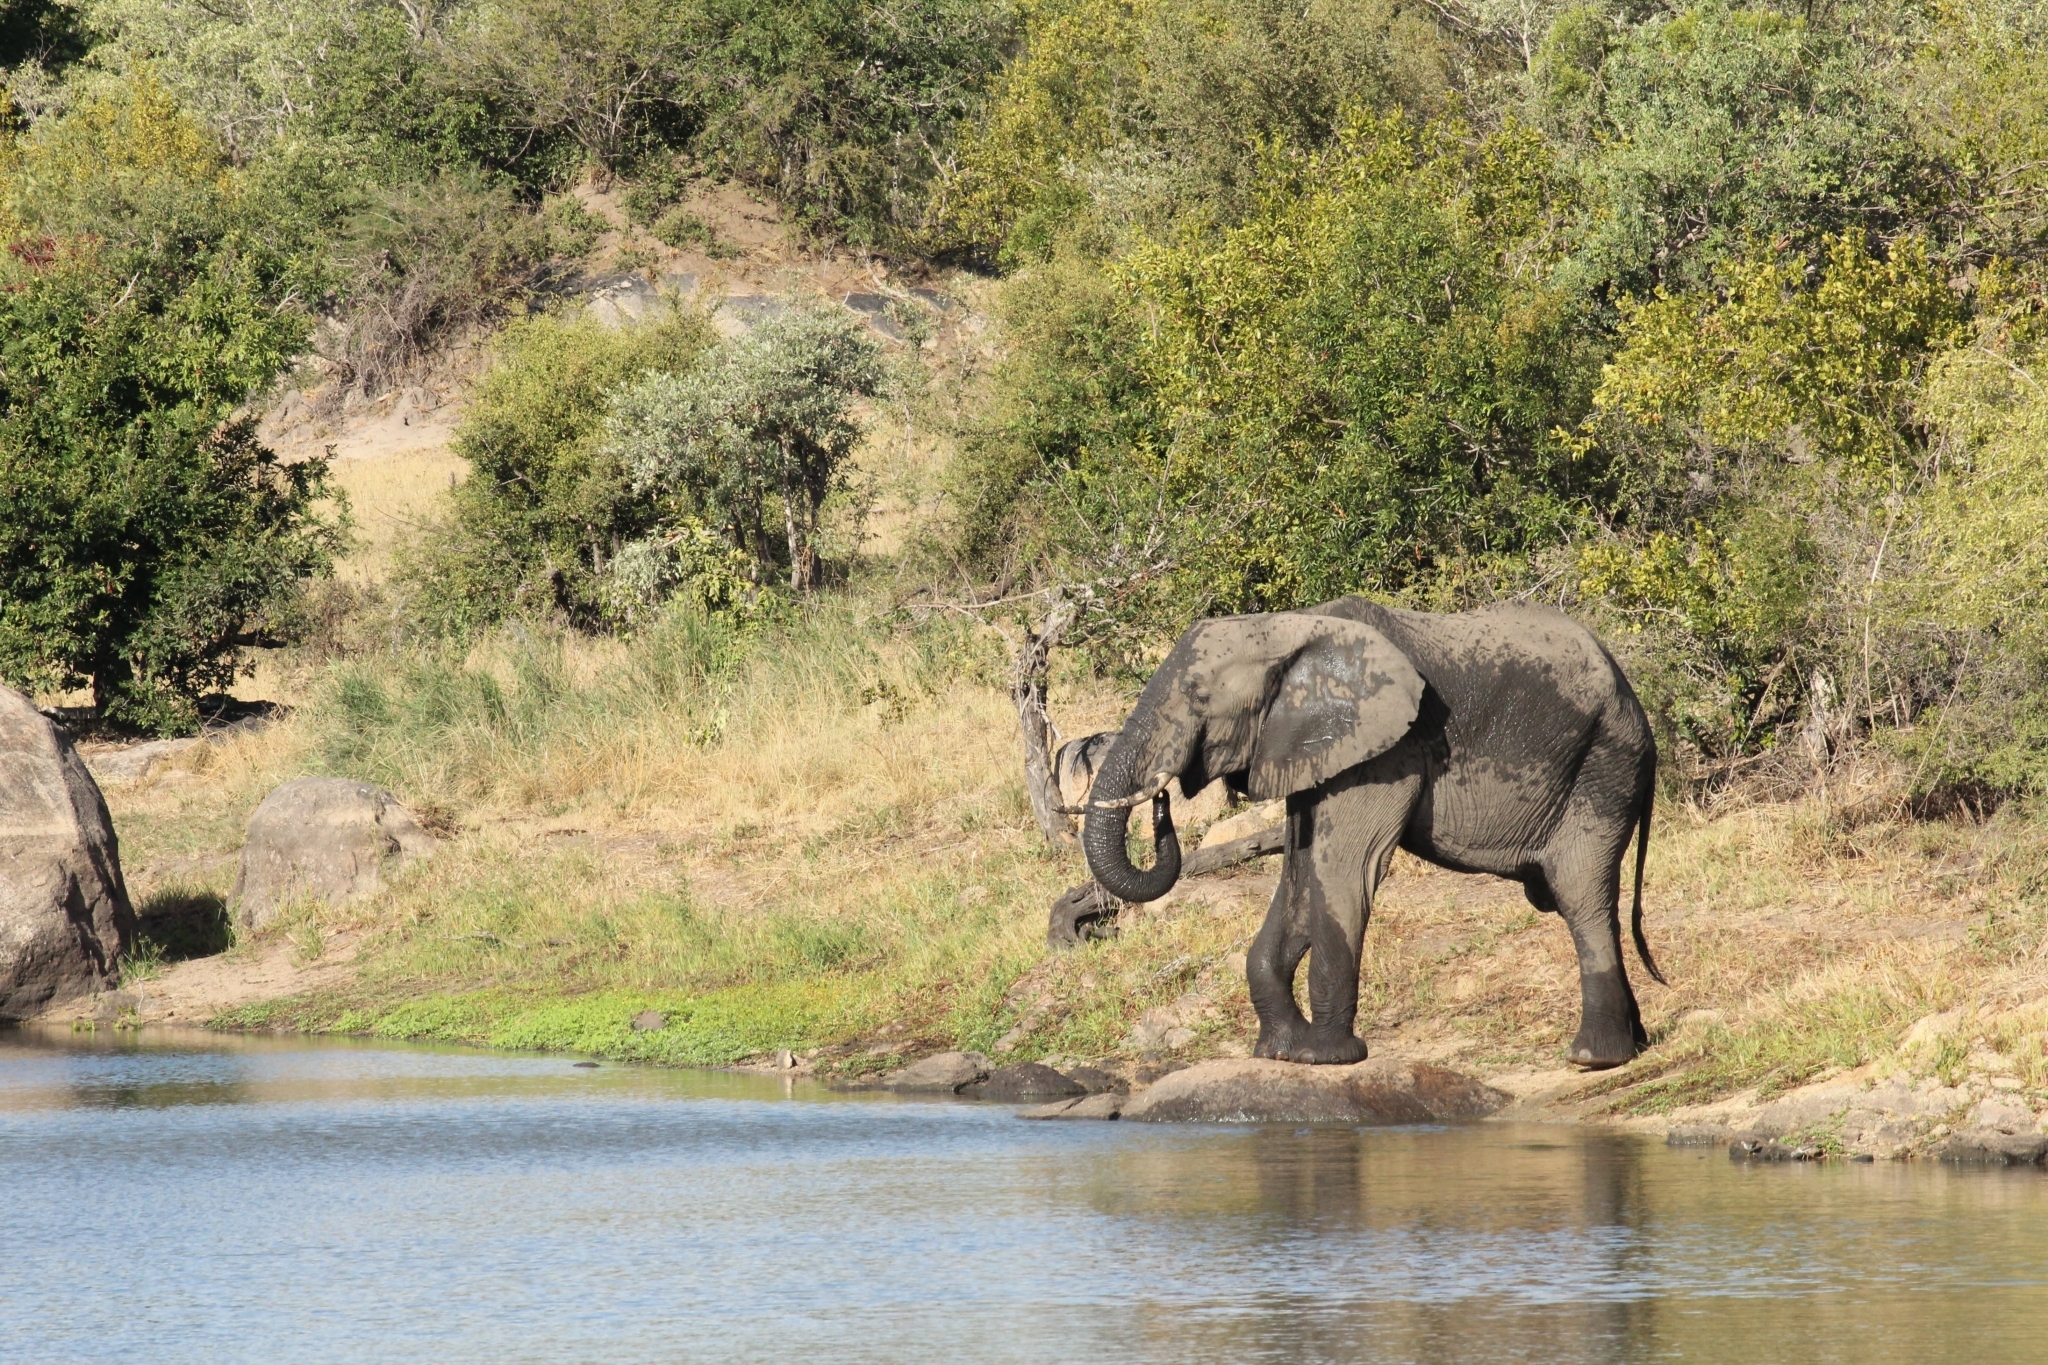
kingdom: Animalia
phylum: Chordata
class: Mammalia
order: Proboscidea
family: Elephantidae
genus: Loxodonta
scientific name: Loxodonta africana
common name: African elephant
